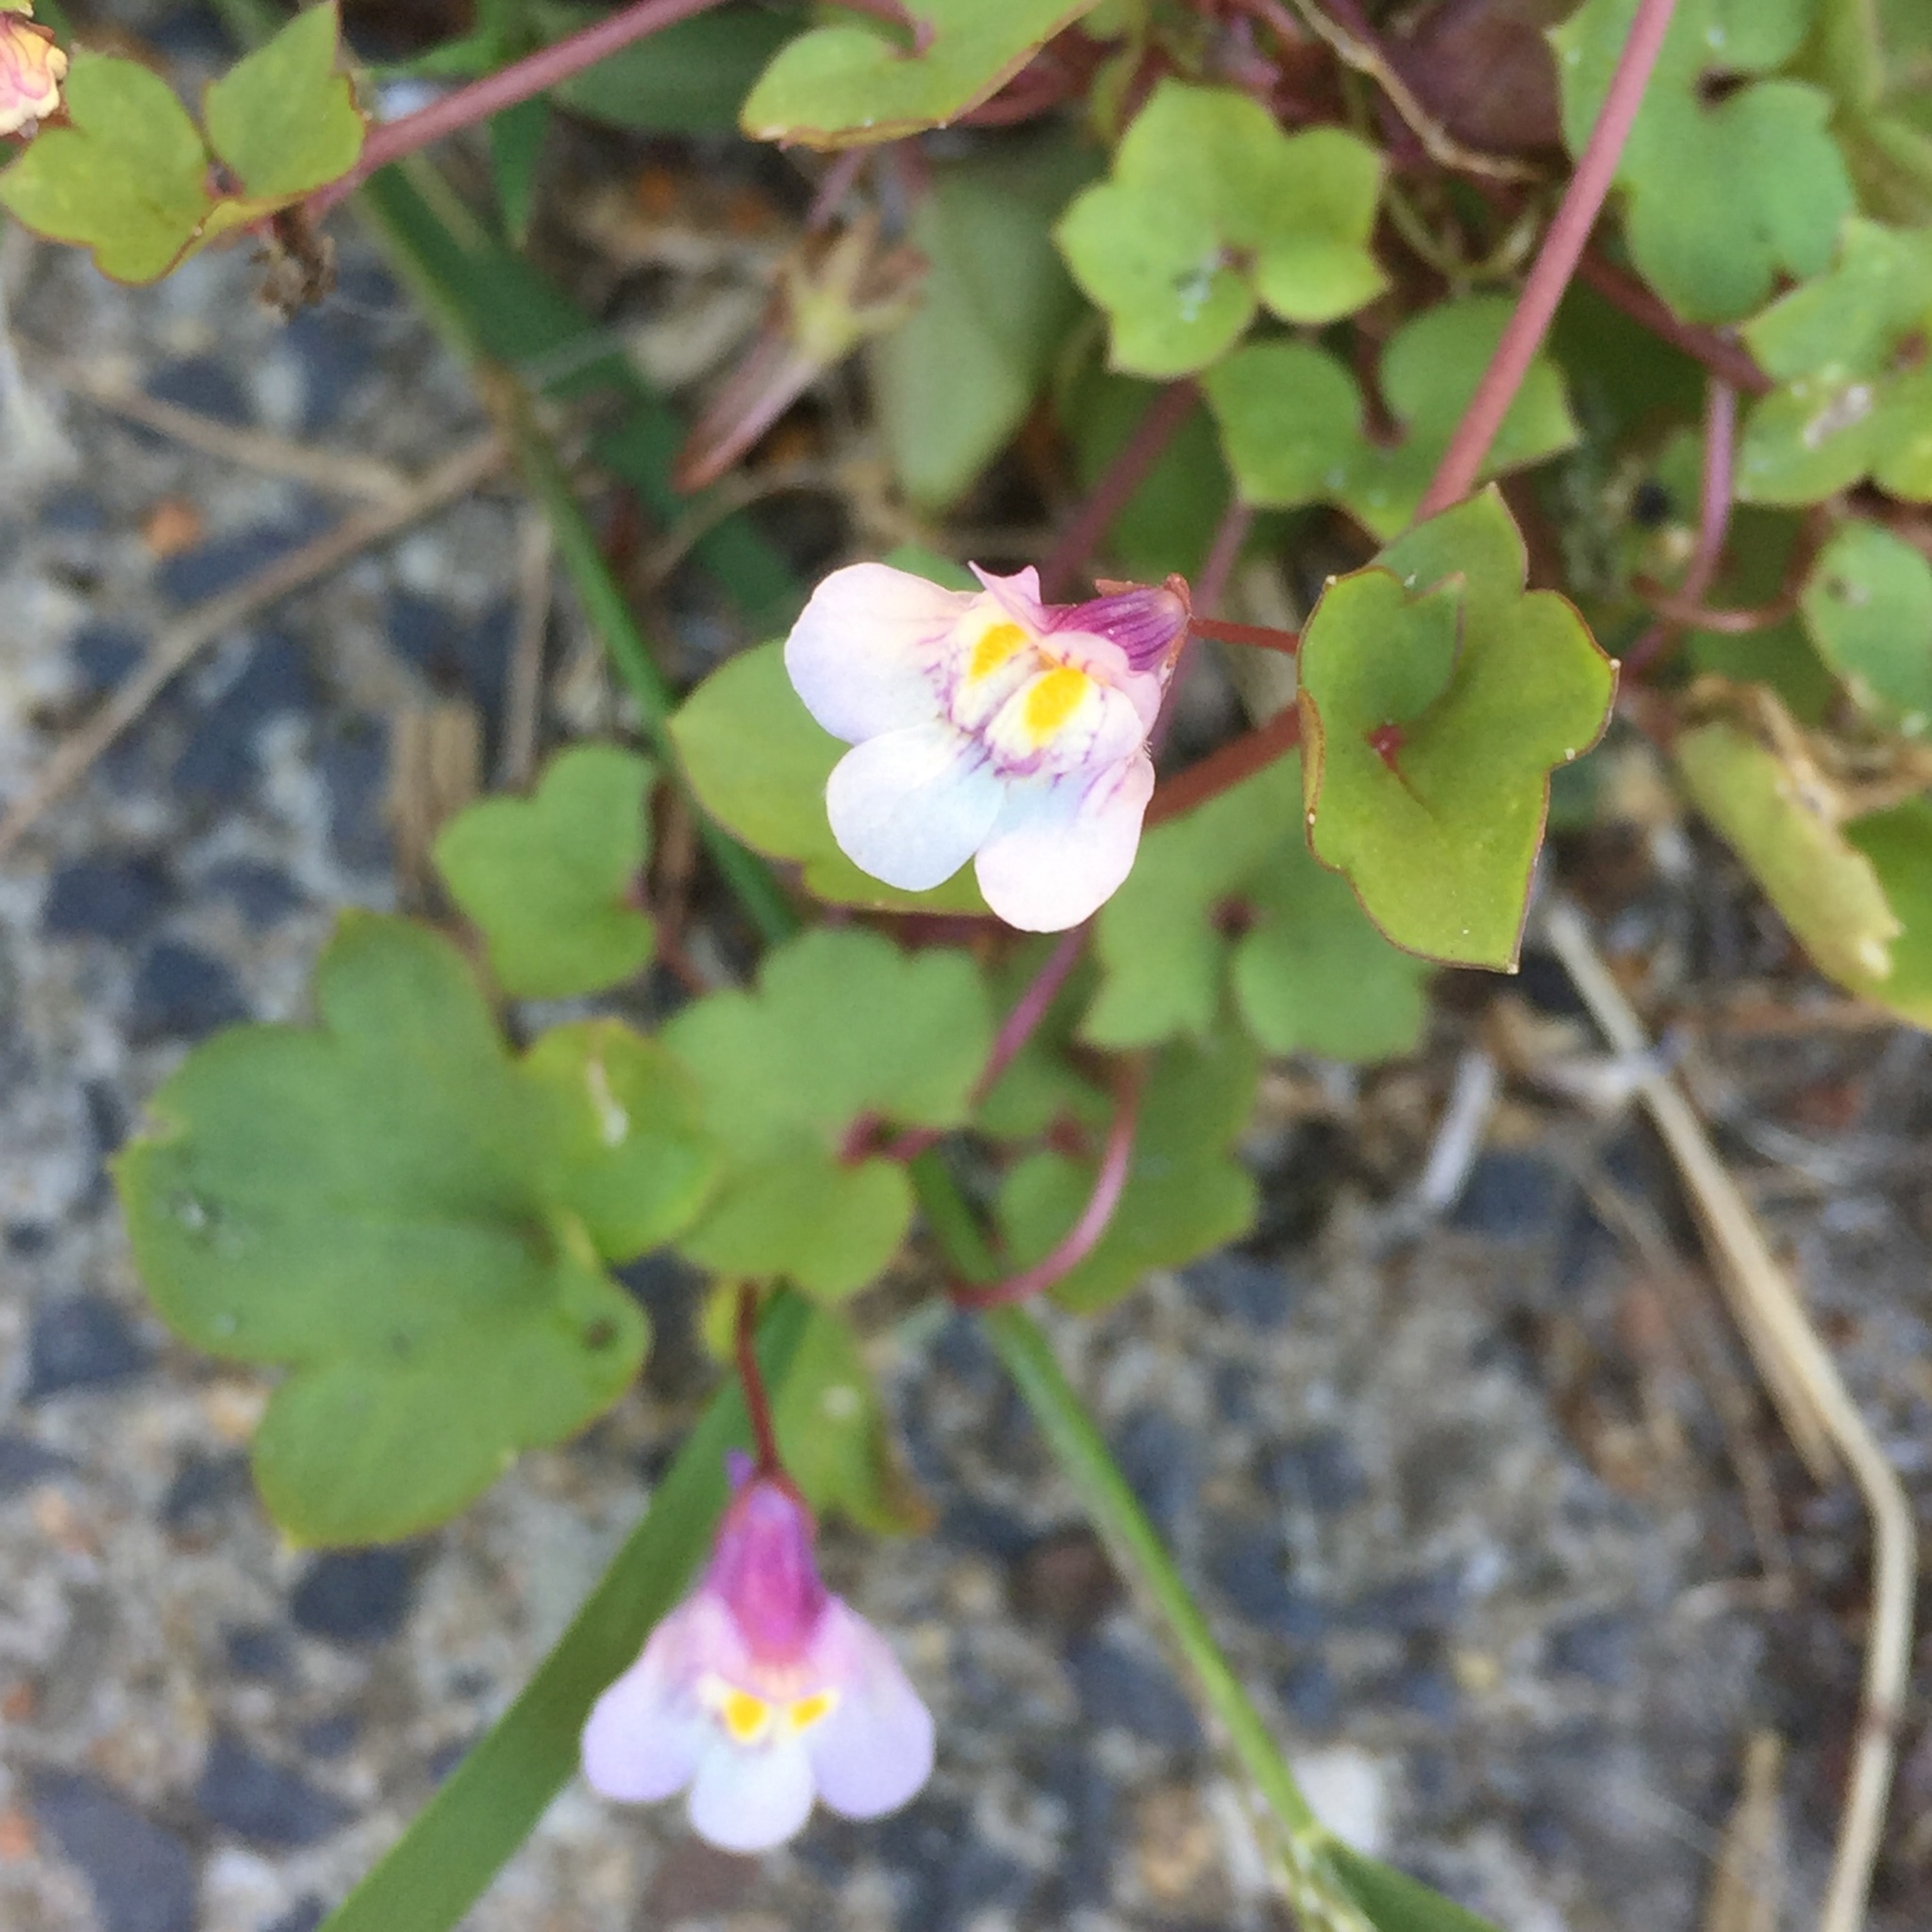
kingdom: Plantae
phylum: Tracheophyta
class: Magnoliopsida
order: Lamiales
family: Plantaginaceae
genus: Cymbalaria
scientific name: Cymbalaria muralis
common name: Ivy-leaved toadflax
